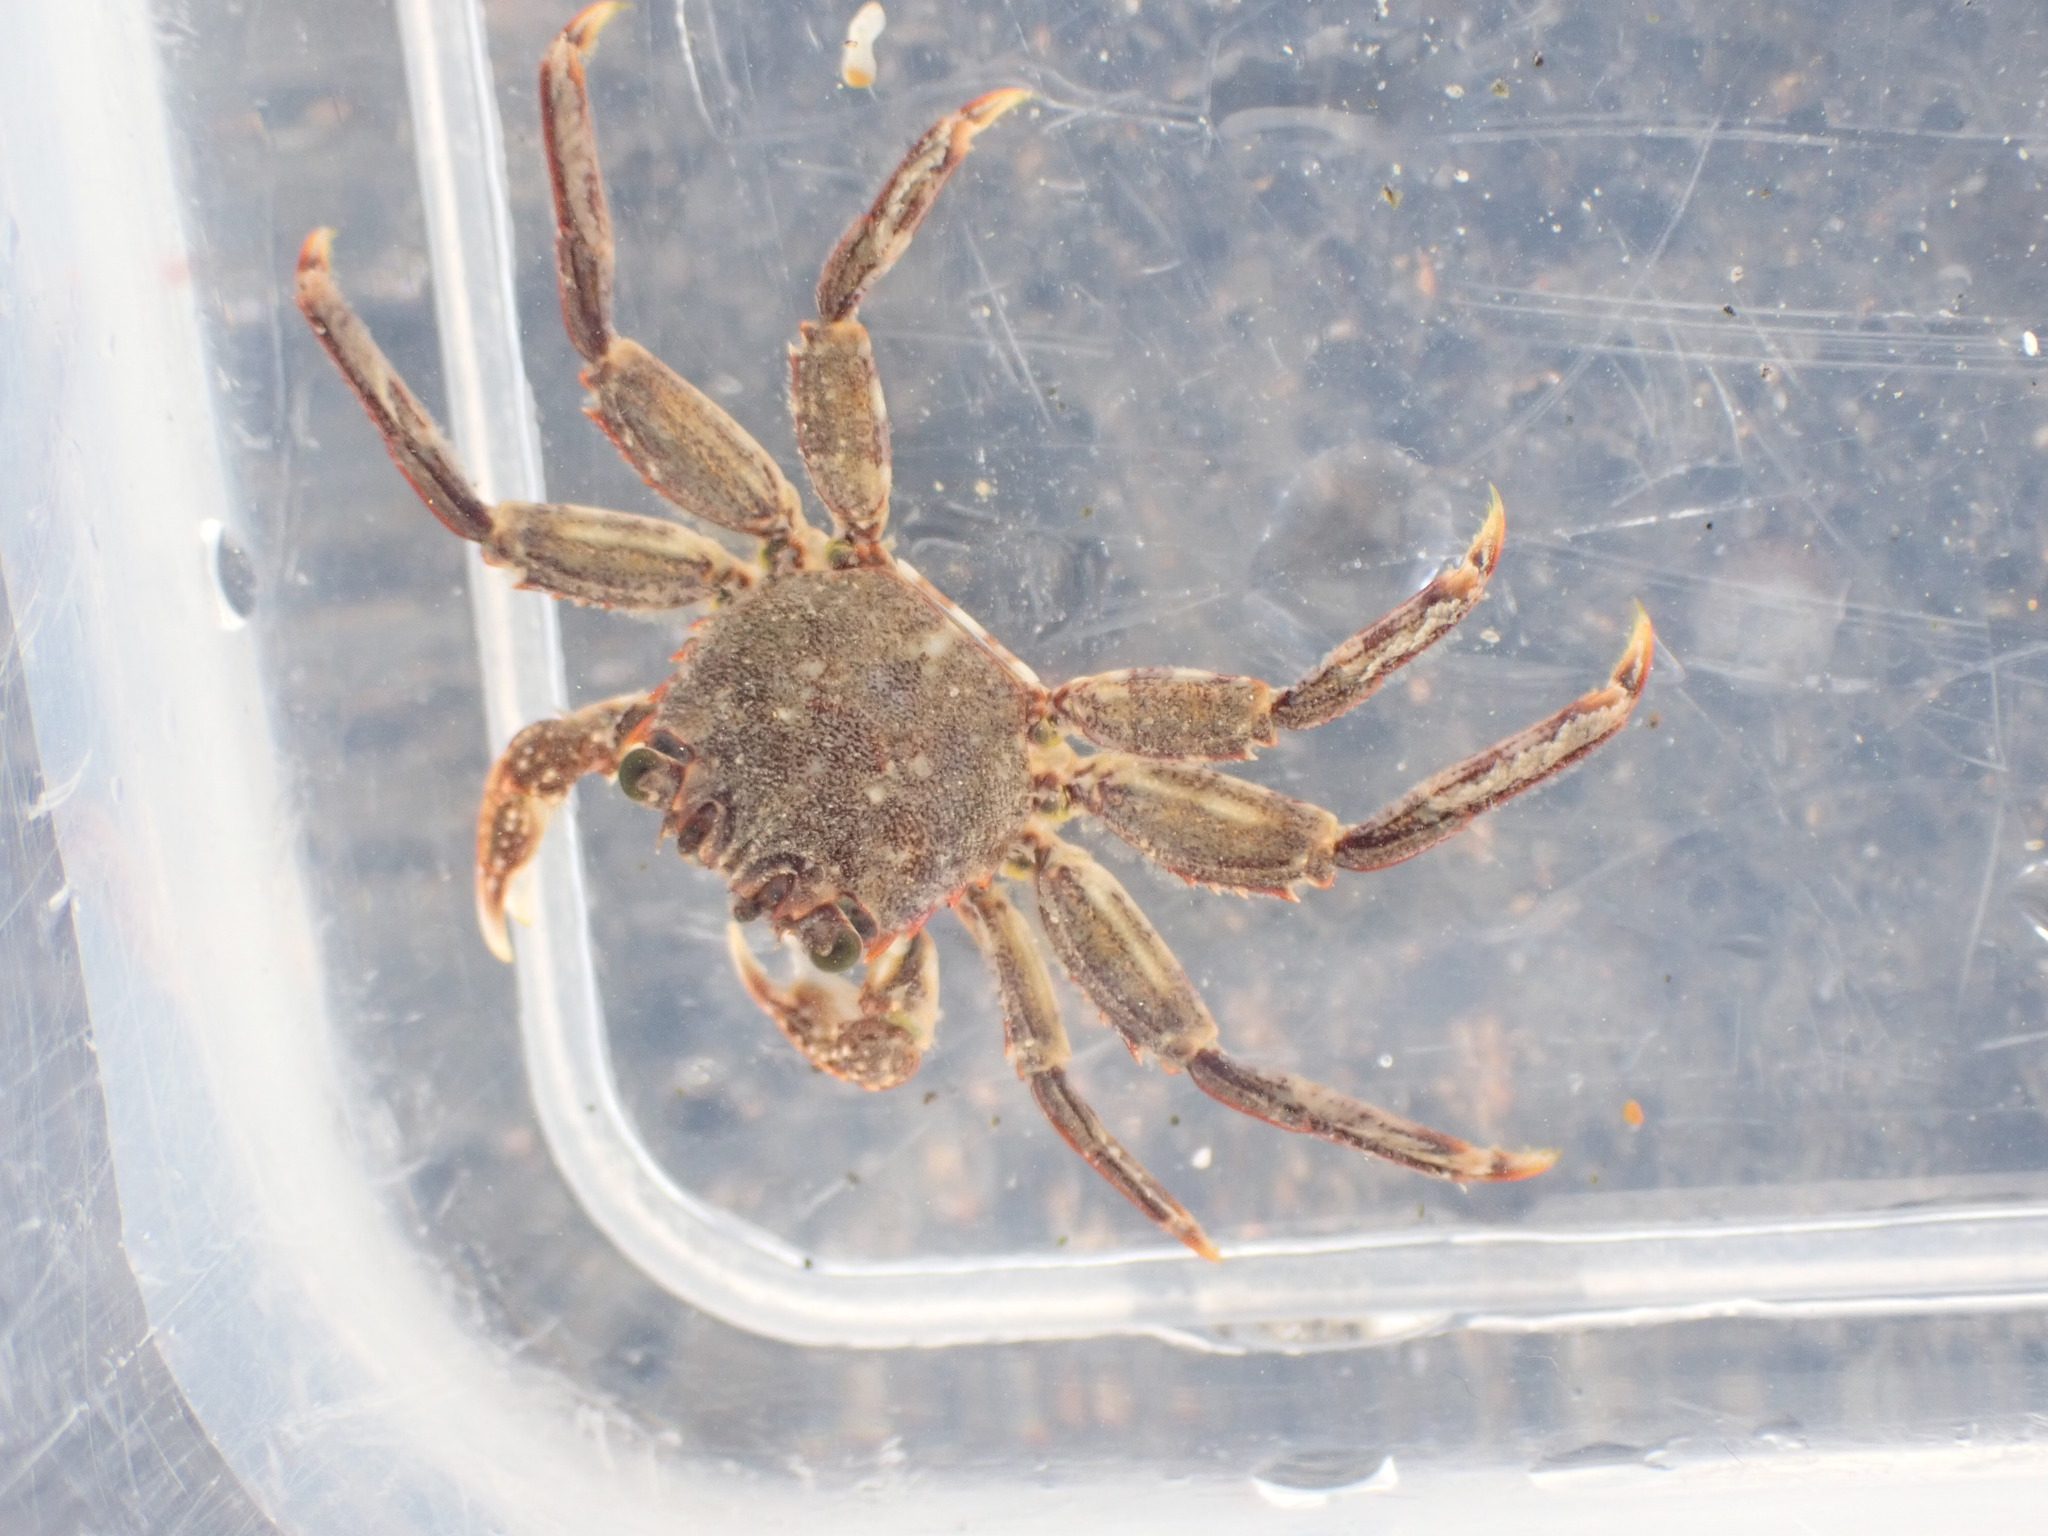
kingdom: Animalia
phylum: Arthropoda
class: Malacostraca
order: Decapoda
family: Plagusiidae
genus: Guinusia
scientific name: Guinusia chabrus
